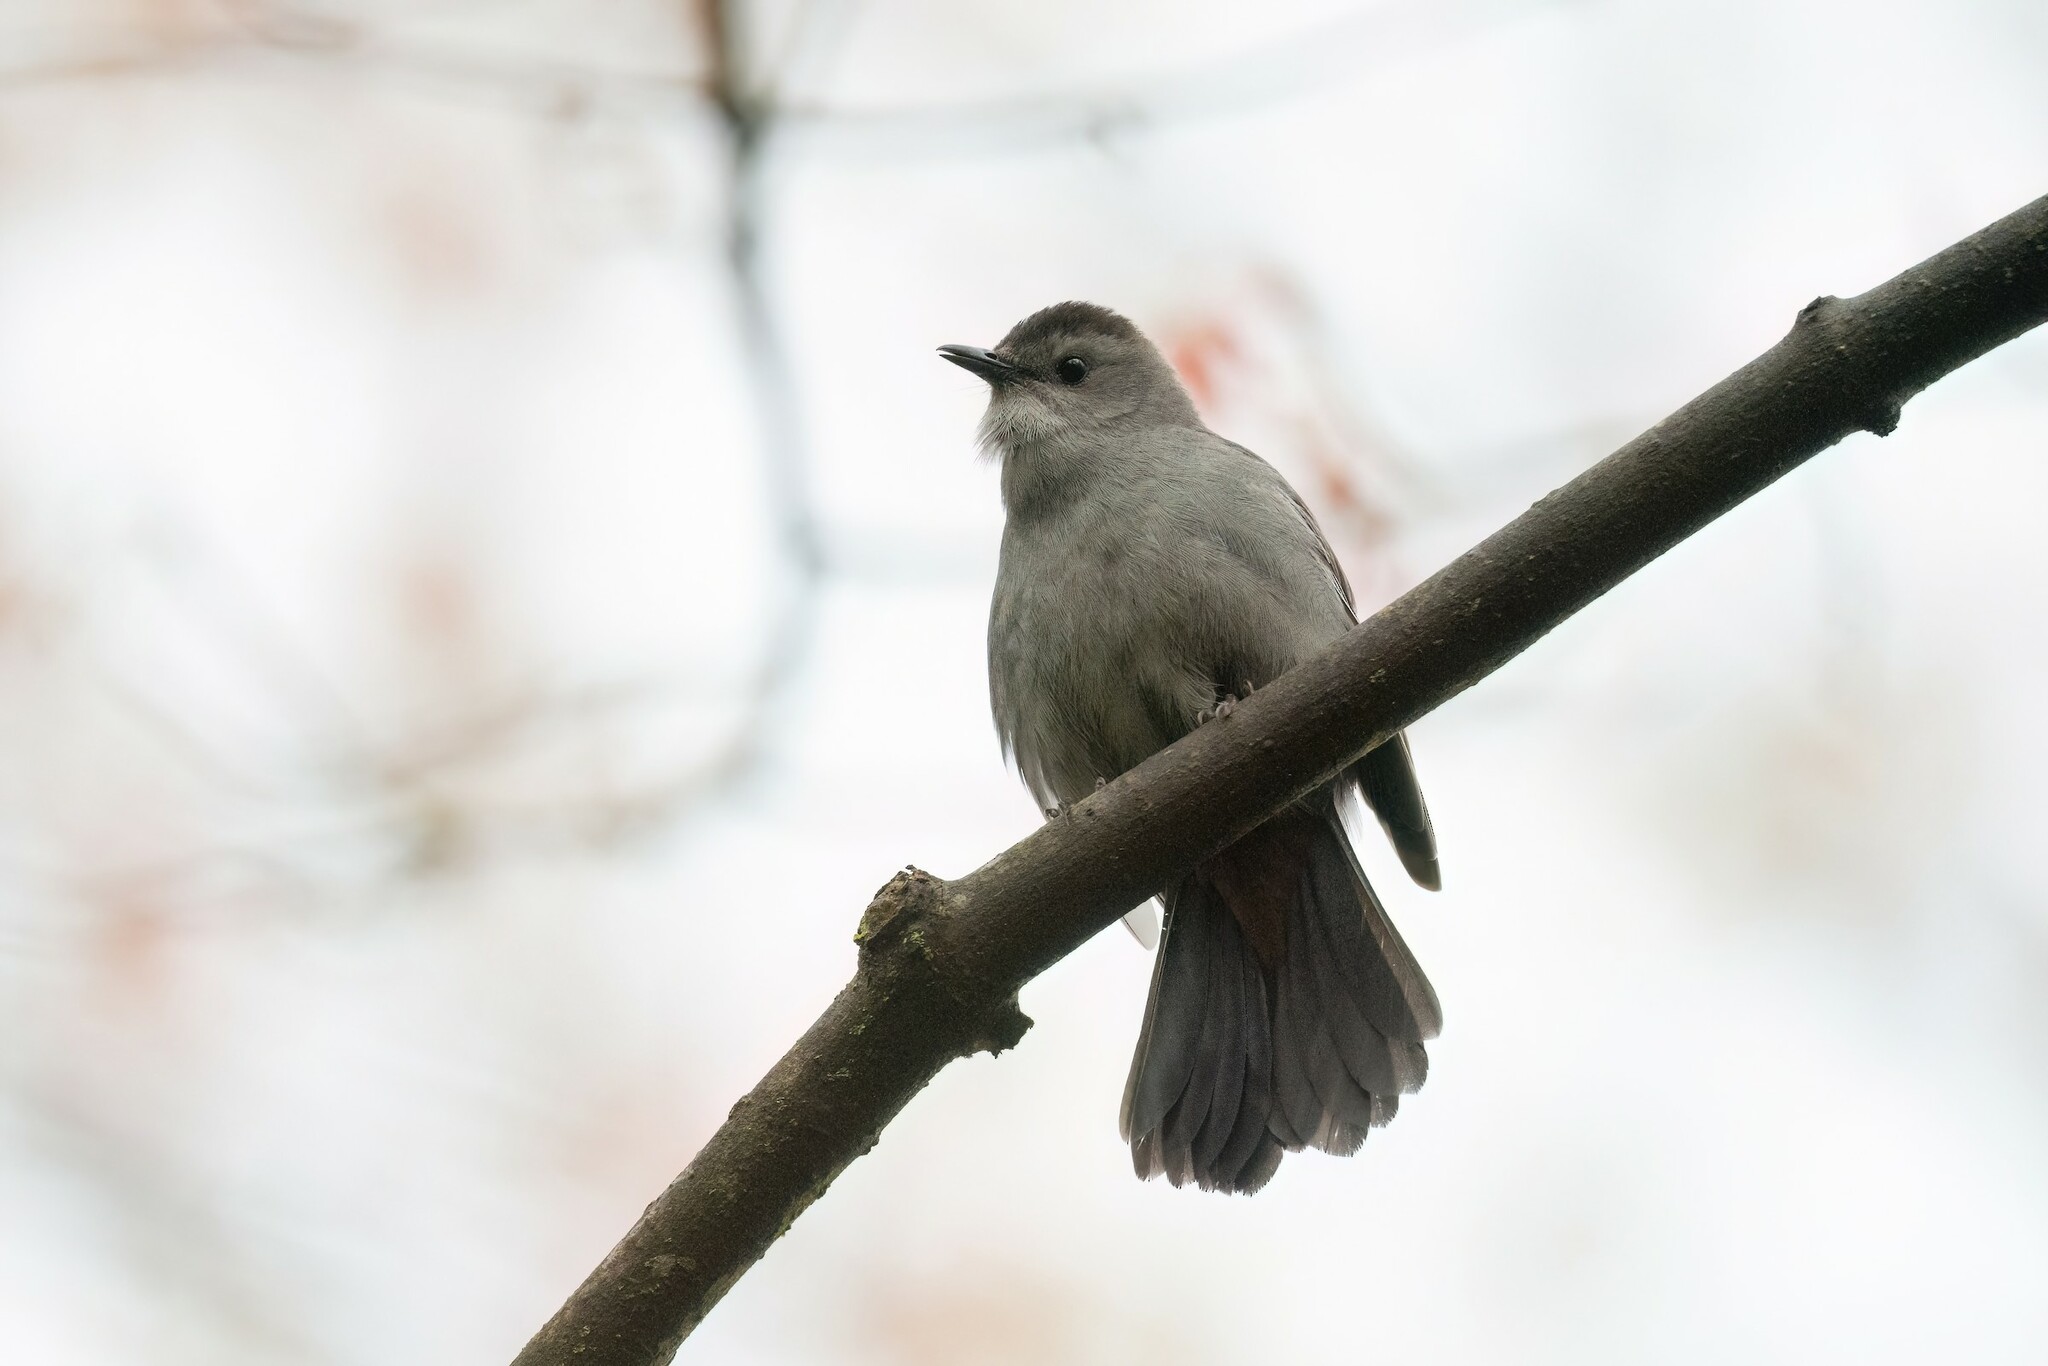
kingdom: Animalia
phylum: Chordata
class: Aves
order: Passeriformes
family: Mimidae
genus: Dumetella
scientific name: Dumetella carolinensis
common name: Gray catbird
